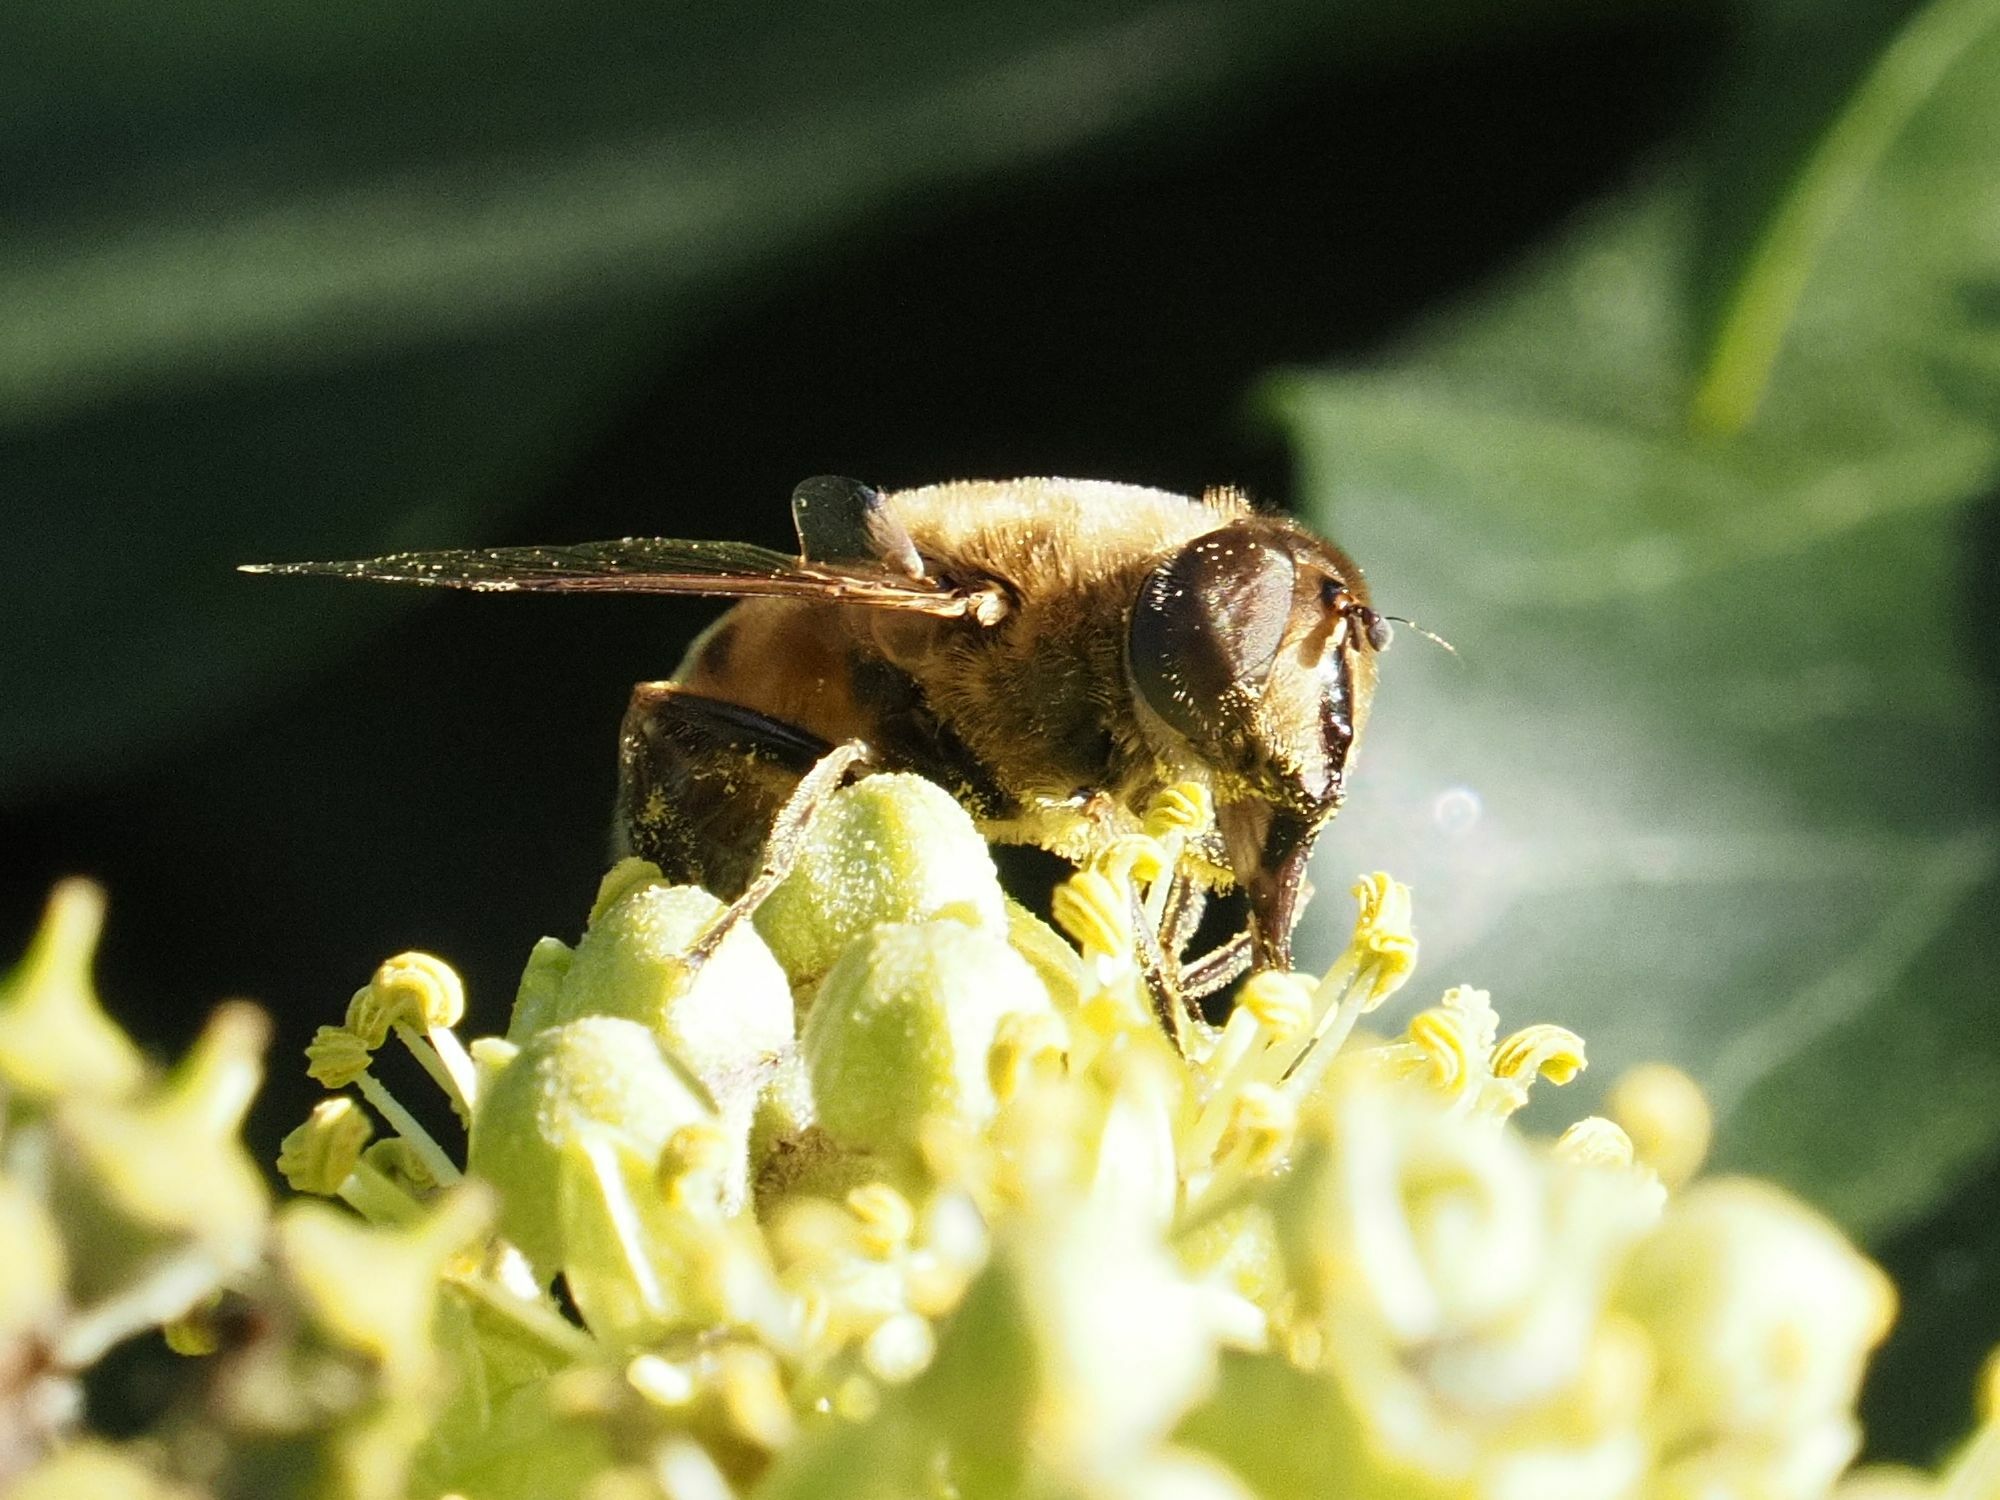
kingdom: Animalia
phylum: Arthropoda
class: Insecta
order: Diptera
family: Syrphidae
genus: Eristalis
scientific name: Eristalis tenax
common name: Drone fly
